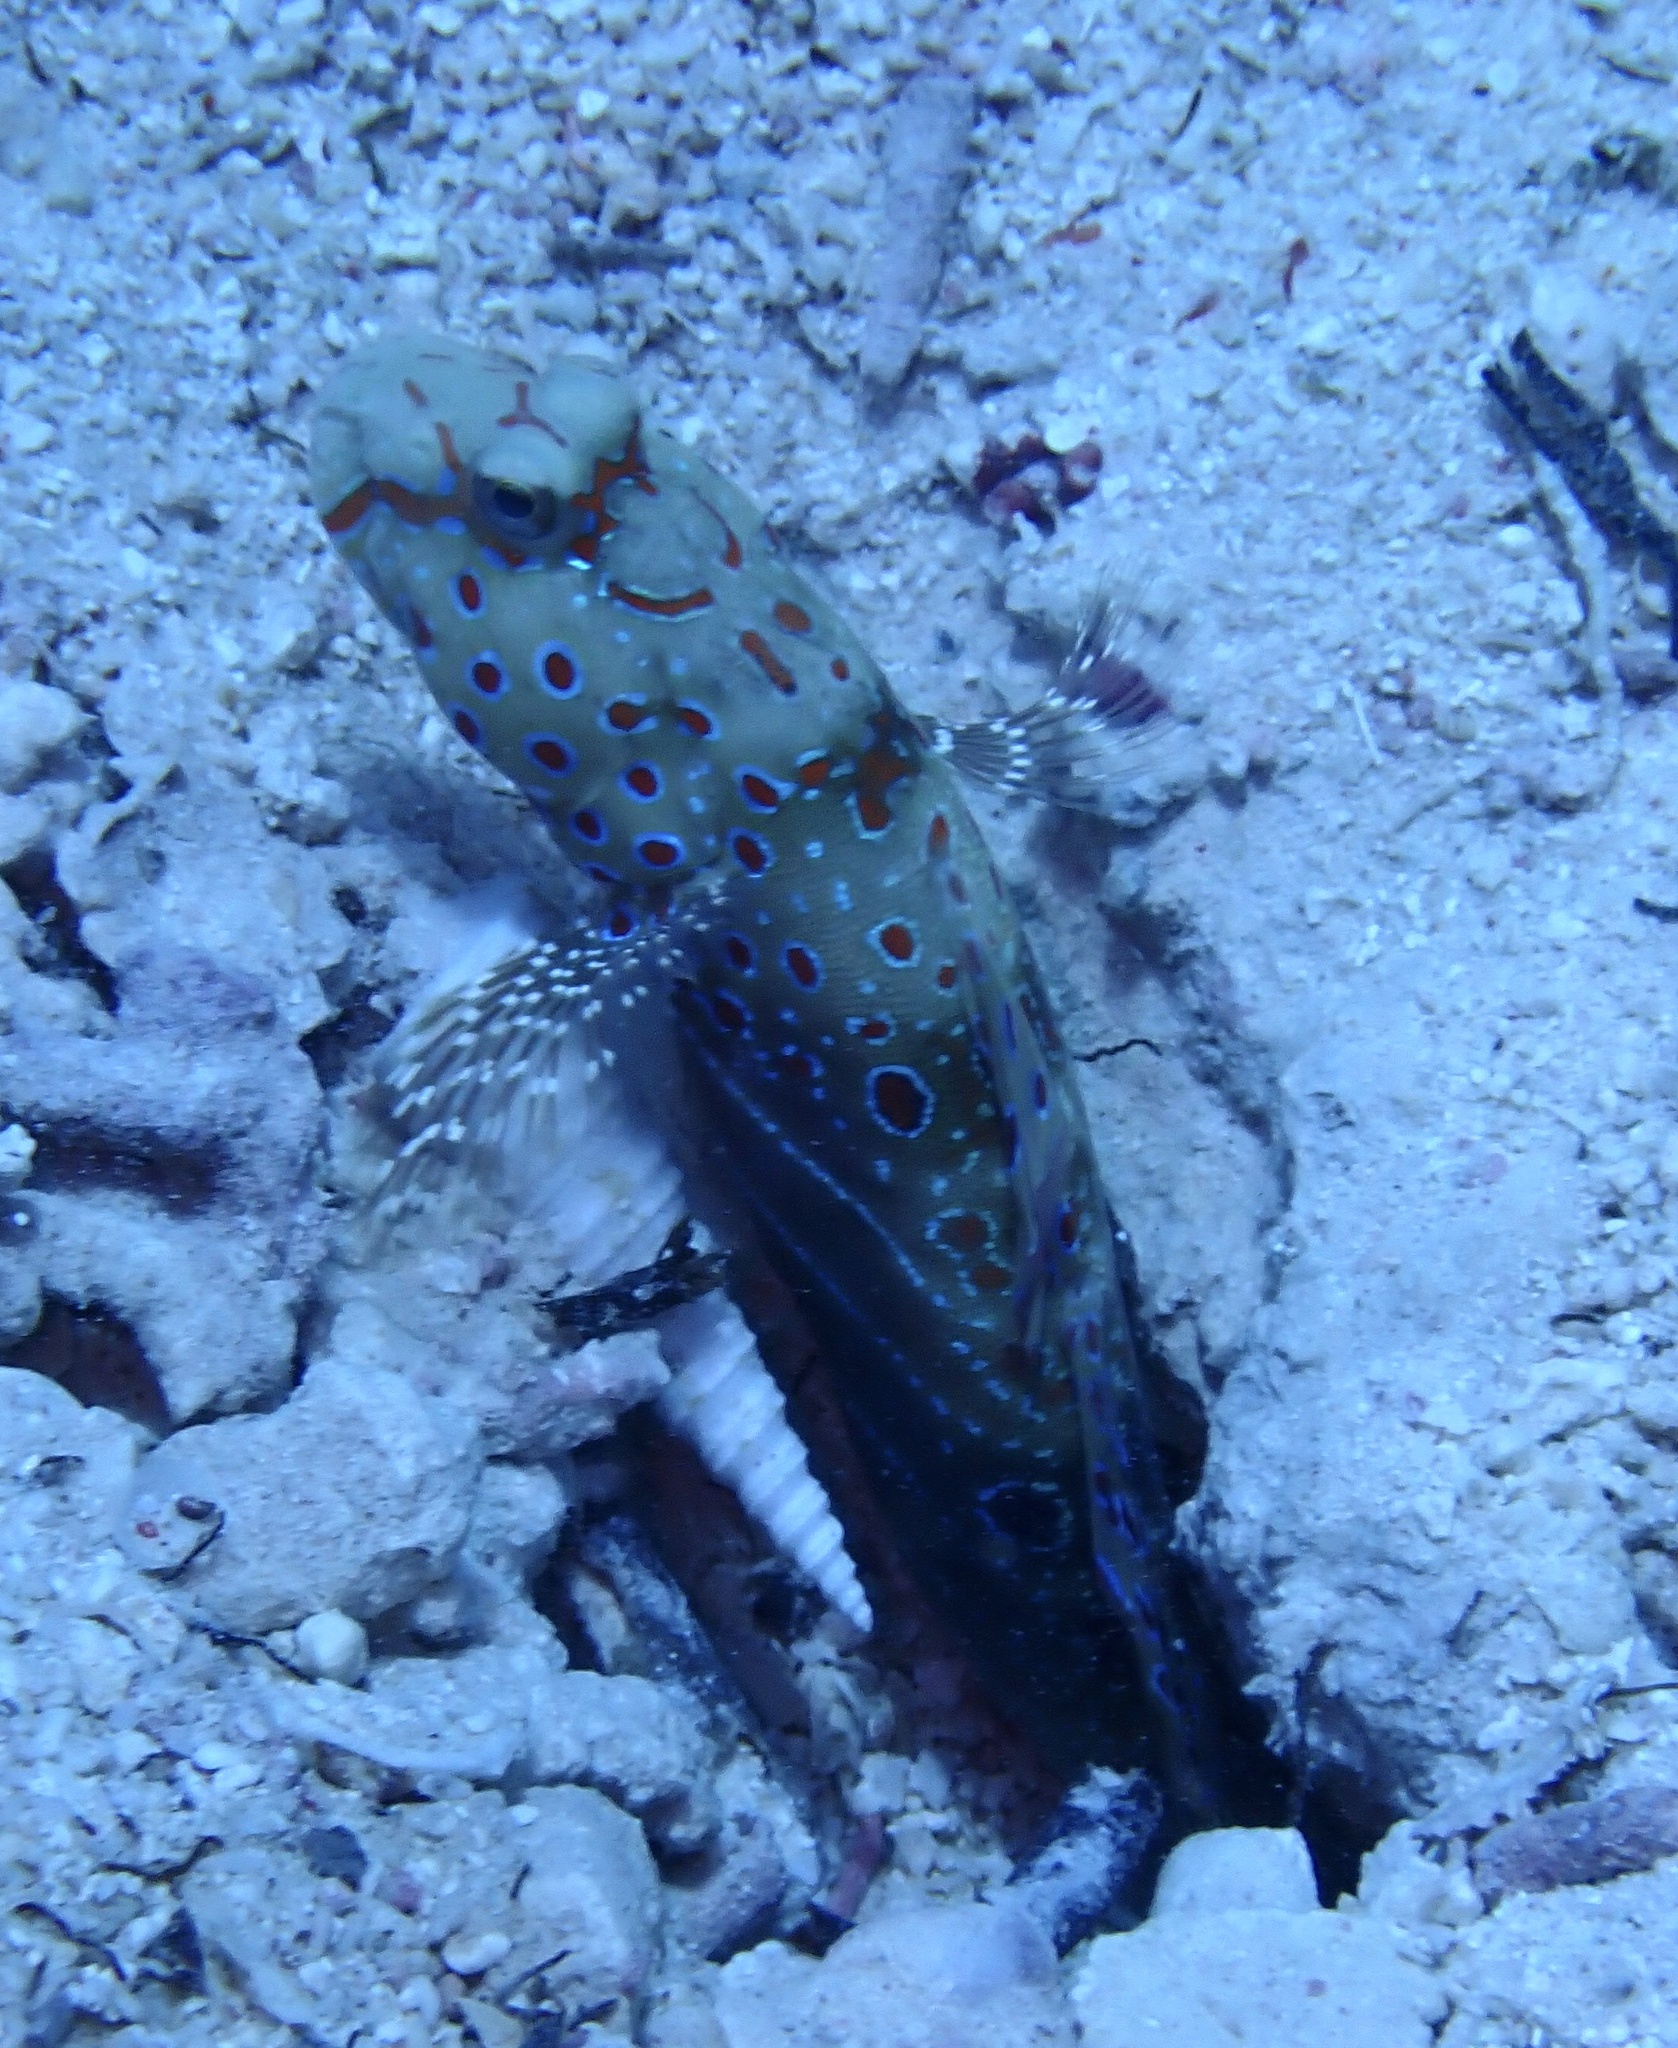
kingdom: Animalia
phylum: Chordata
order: Perciformes
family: Gobiidae
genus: Cryptocentrus
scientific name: Cryptocentrus caeruleopunctatus
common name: Blue-and-red-spotted goby
